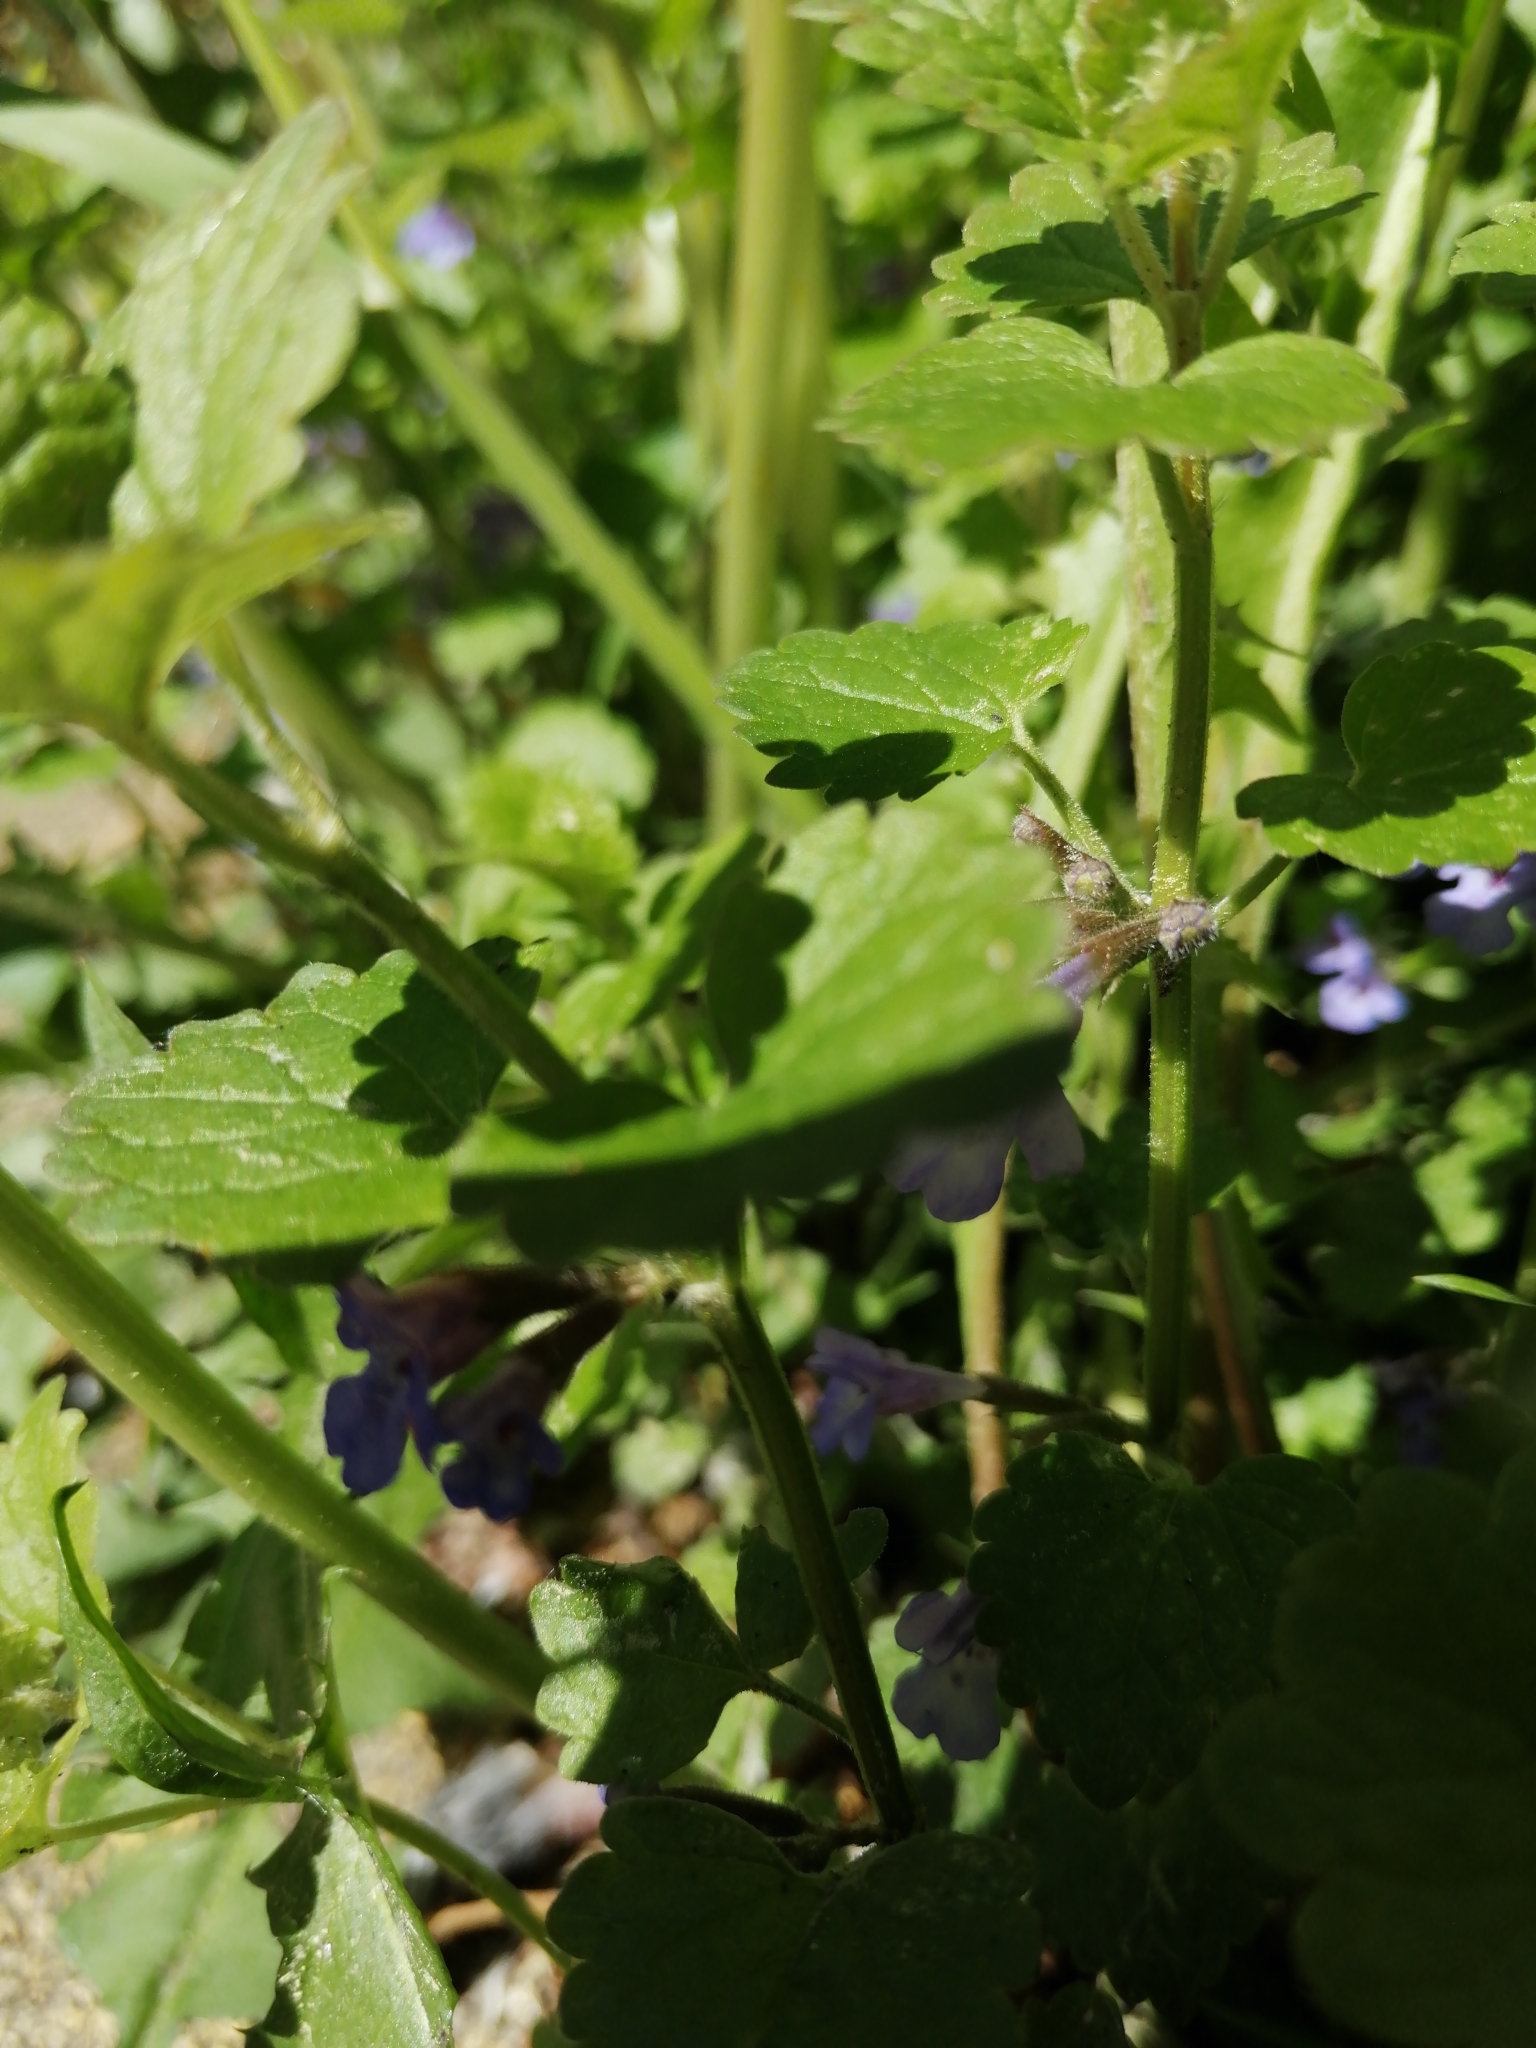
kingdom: Plantae
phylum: Tracheophyta
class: Magnoliopsida
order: Lamiales
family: Lamiaceae
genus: Glechoma
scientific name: Glechoma hederacea
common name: Ground ivy
